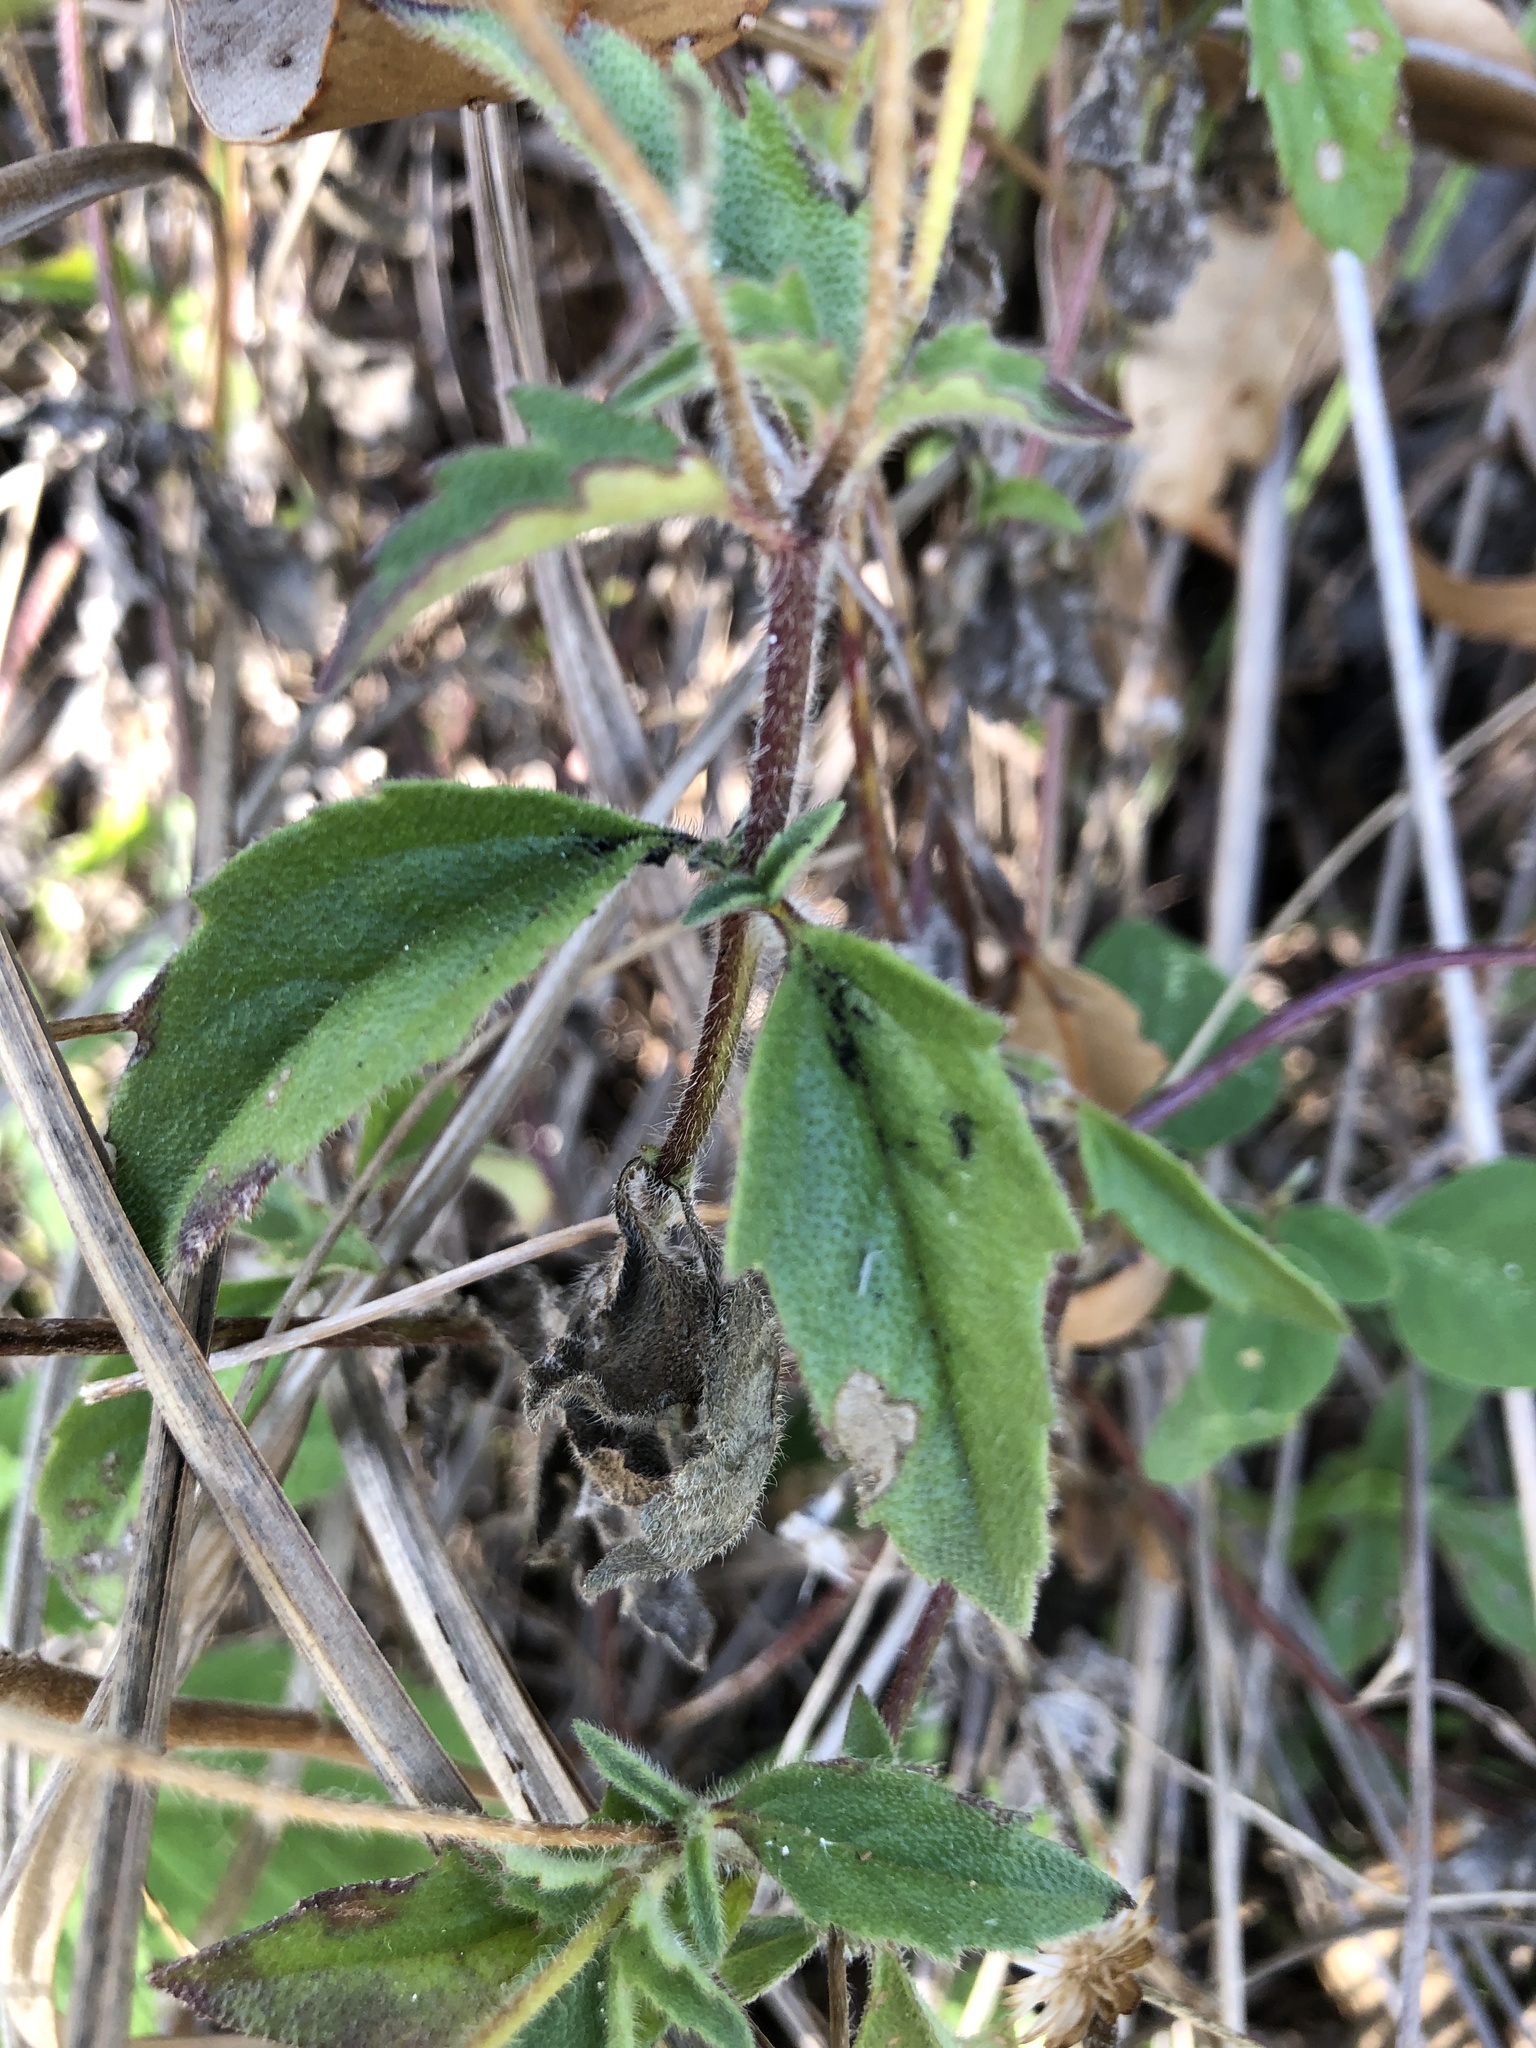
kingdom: Plantae
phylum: Tracheophyta
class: Magnoliopsida
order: Asterales
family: Asteraceae
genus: Tridax
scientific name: Tridax procumbens
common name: Coatbuttons
